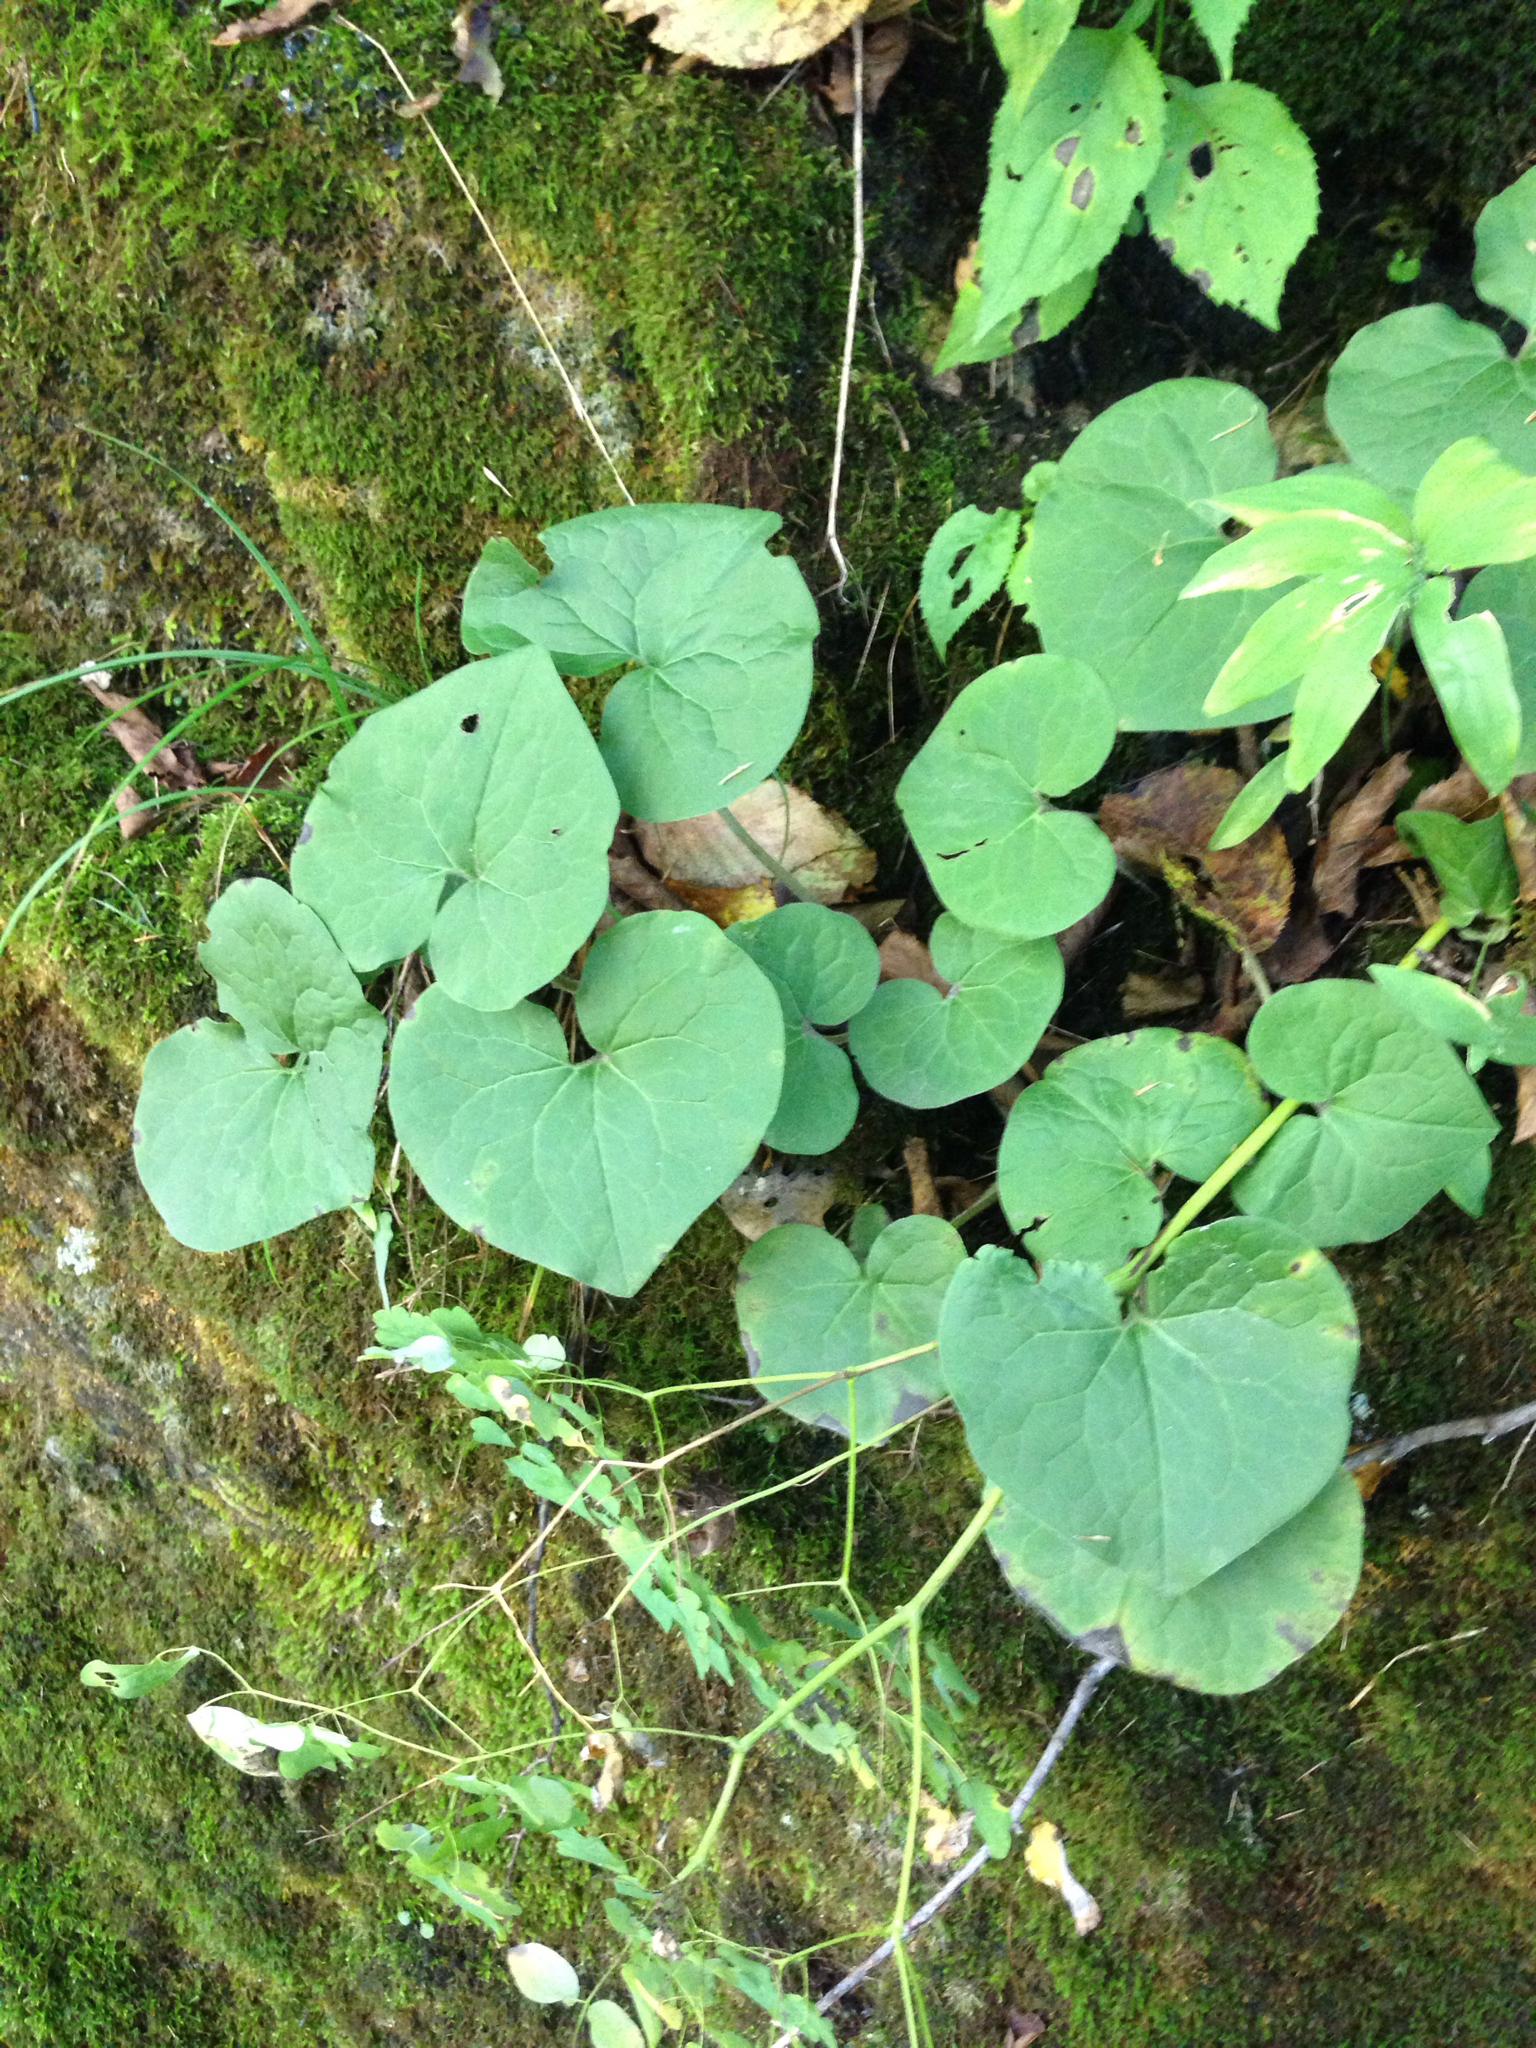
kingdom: Plantae
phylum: Tracheophyta
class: Magnoliopsida
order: Piperales
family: Aristolochiaceae
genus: Asarum
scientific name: Asarum canadense
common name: Wild ginger
